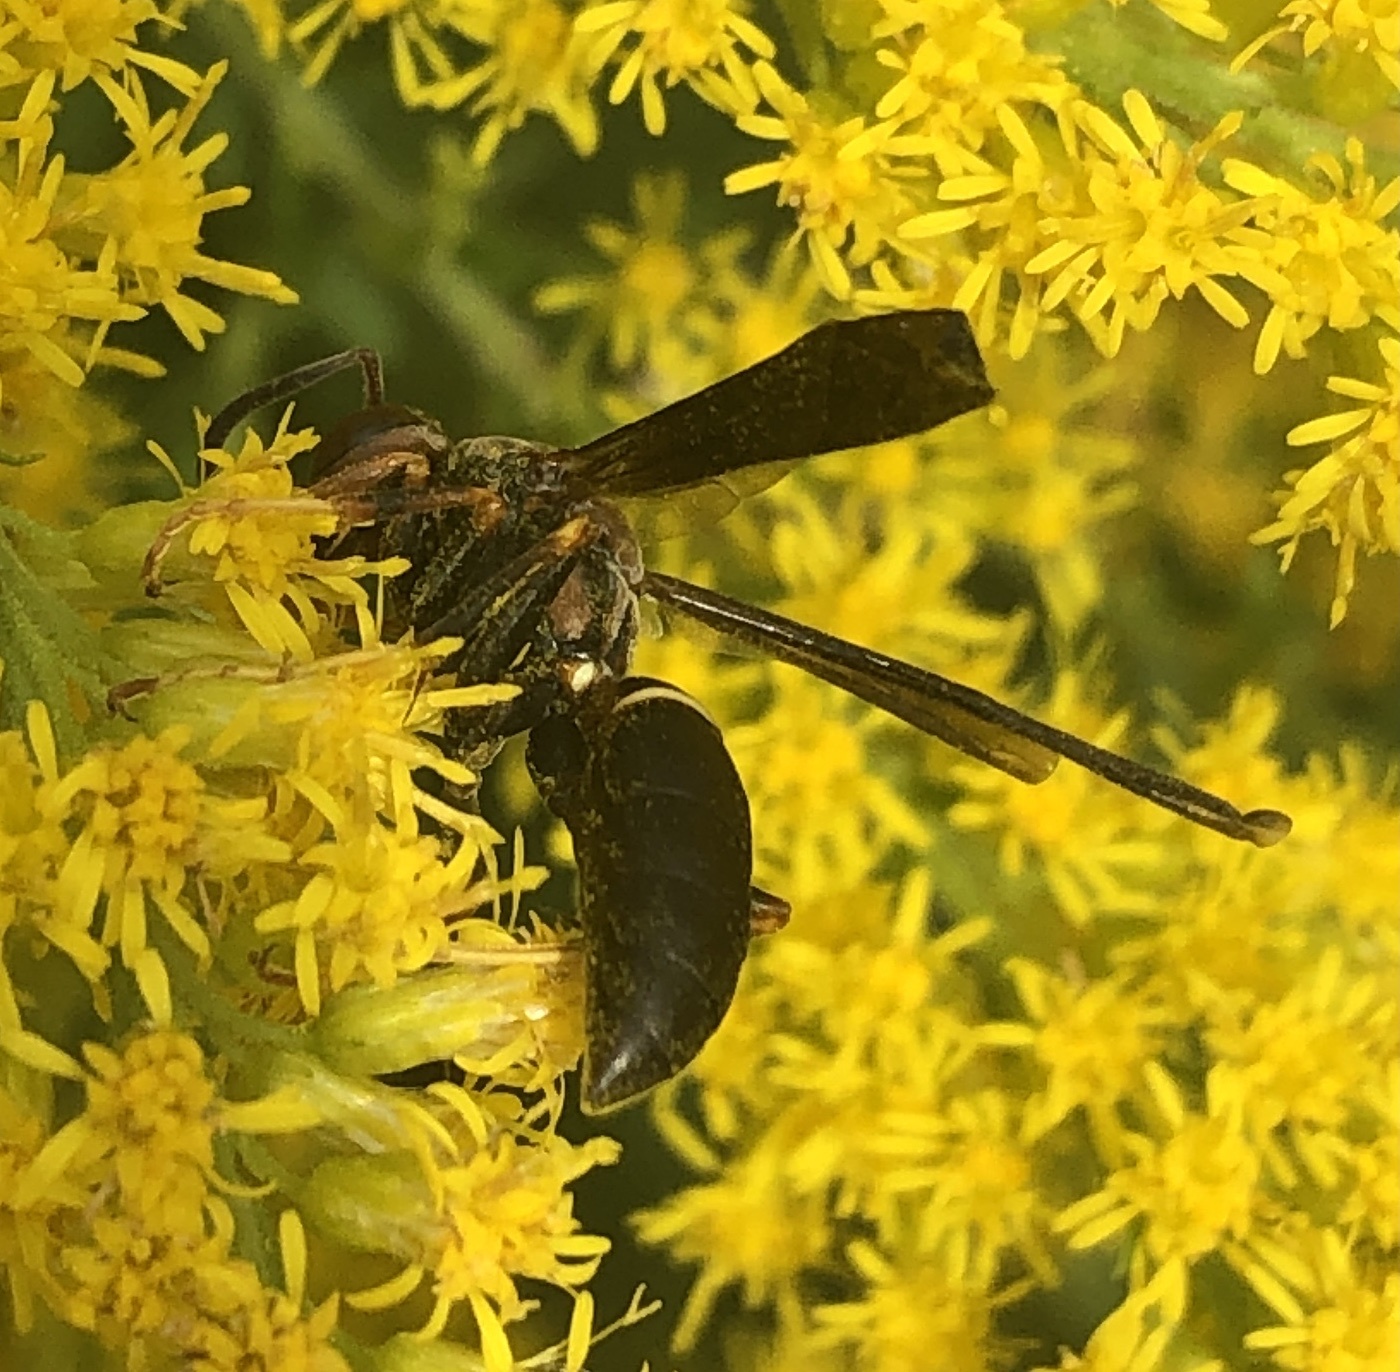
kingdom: Animalia
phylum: Arthropoda
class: Insecta
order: Hymenoptera
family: Eumenidae
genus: Polistes
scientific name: Polistes parametricus
